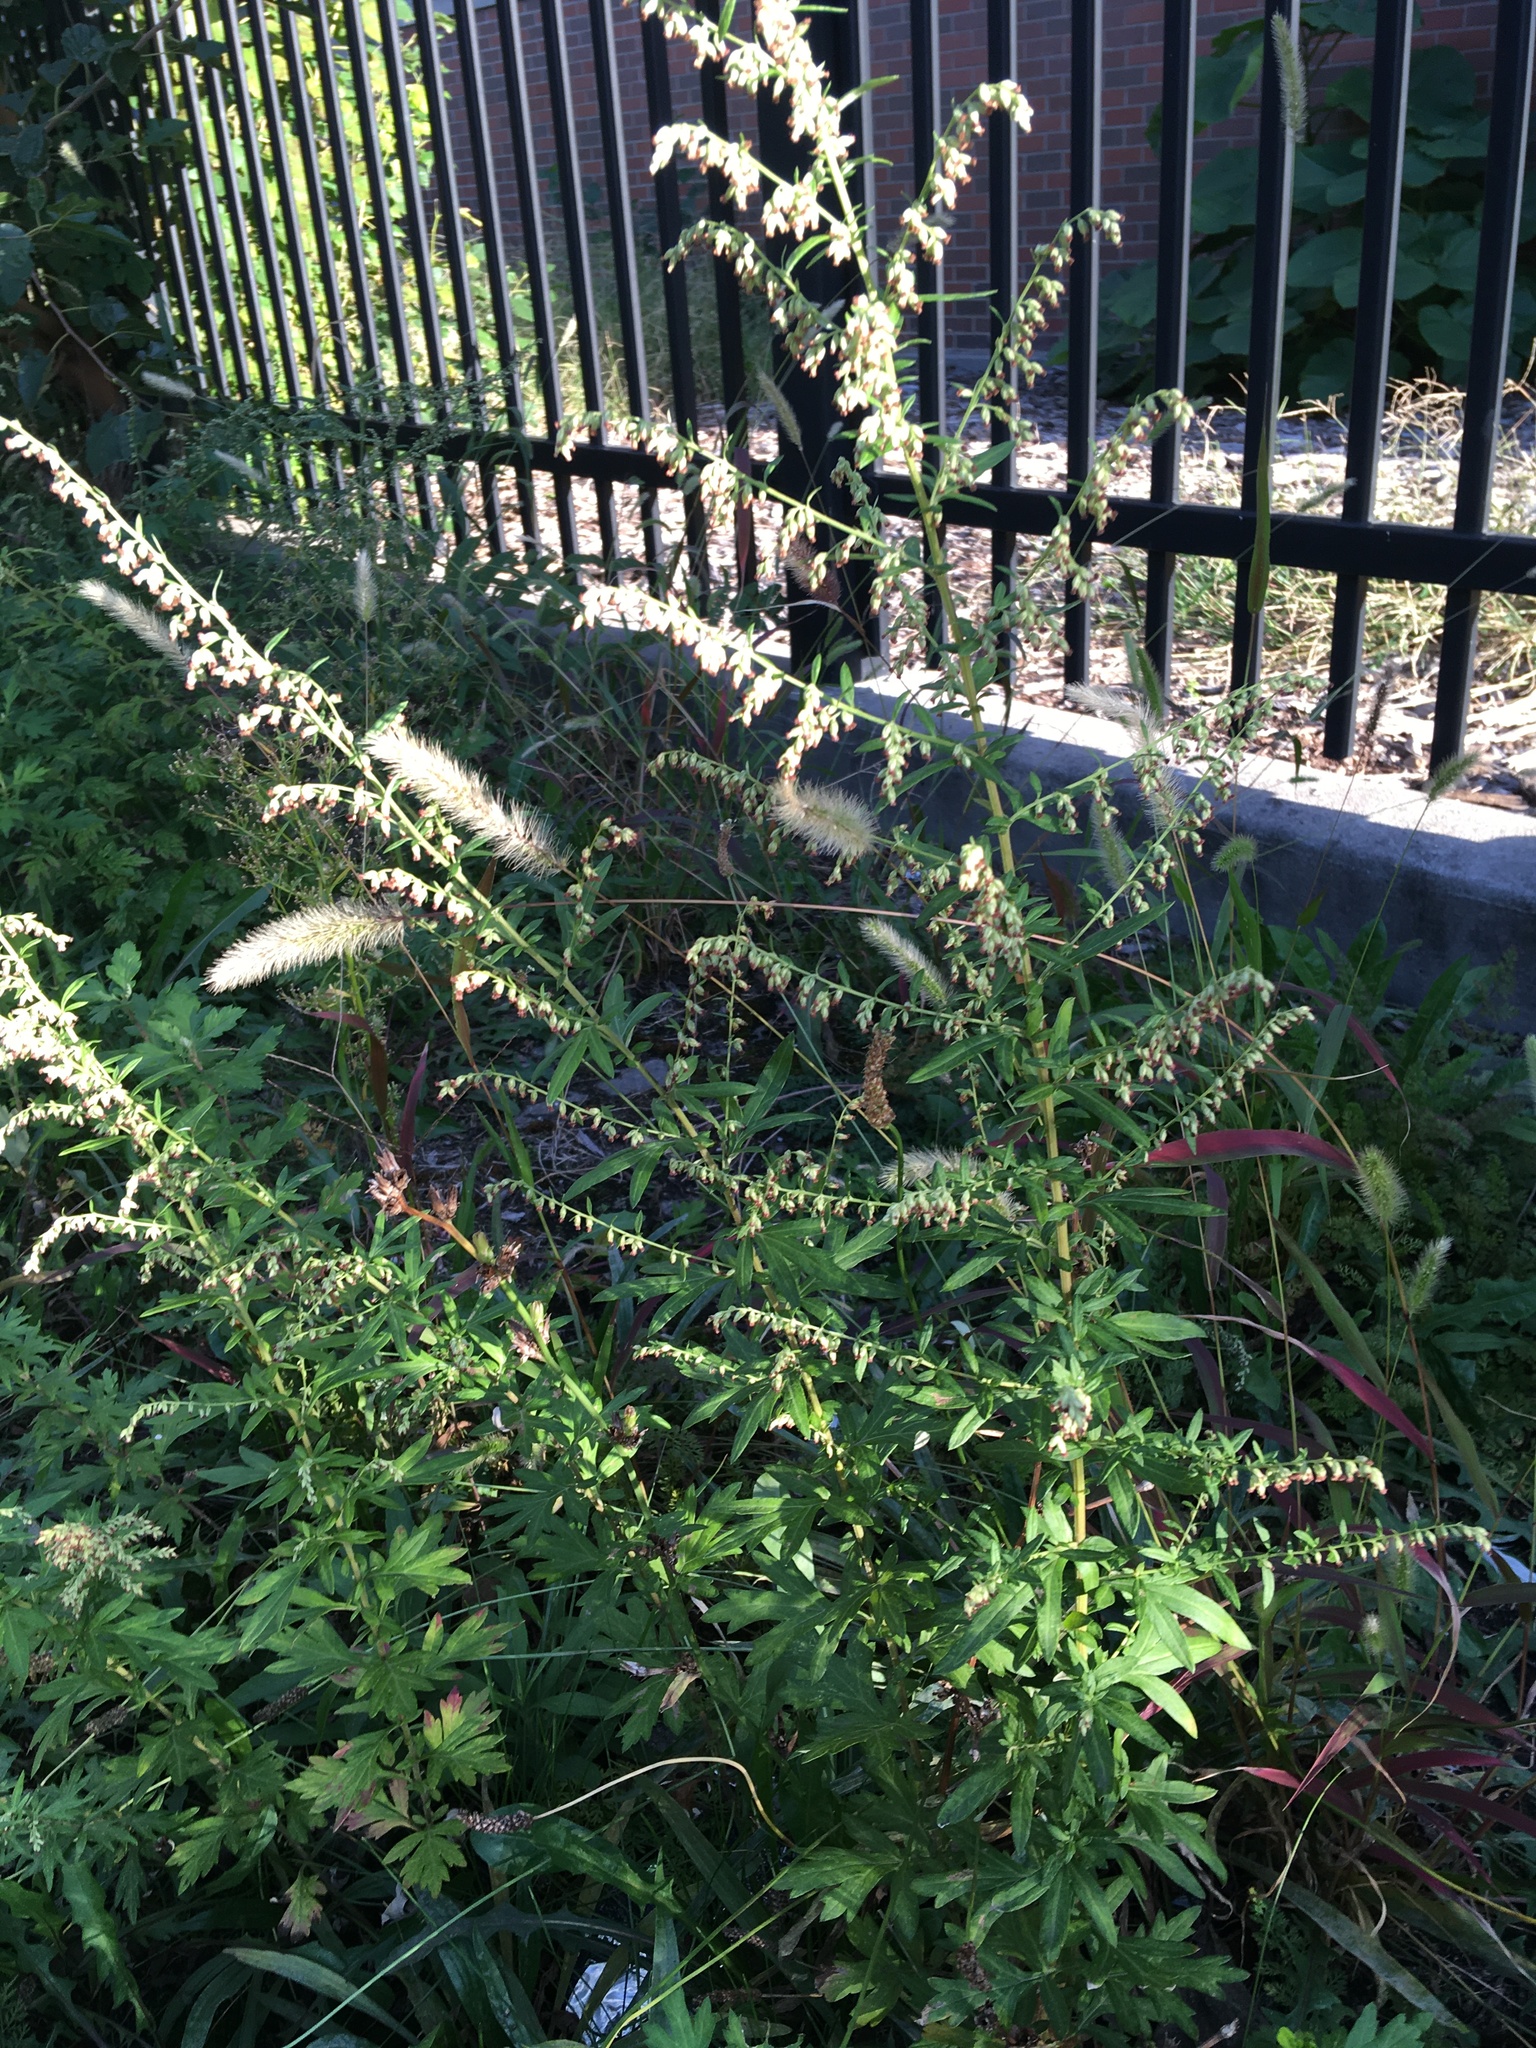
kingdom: Plantae
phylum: Tracheophyta
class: Magnoliopsida
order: Asterales
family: Asteraceae
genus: Artemisia
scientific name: Artemisia vulgaris
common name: Mugwort
